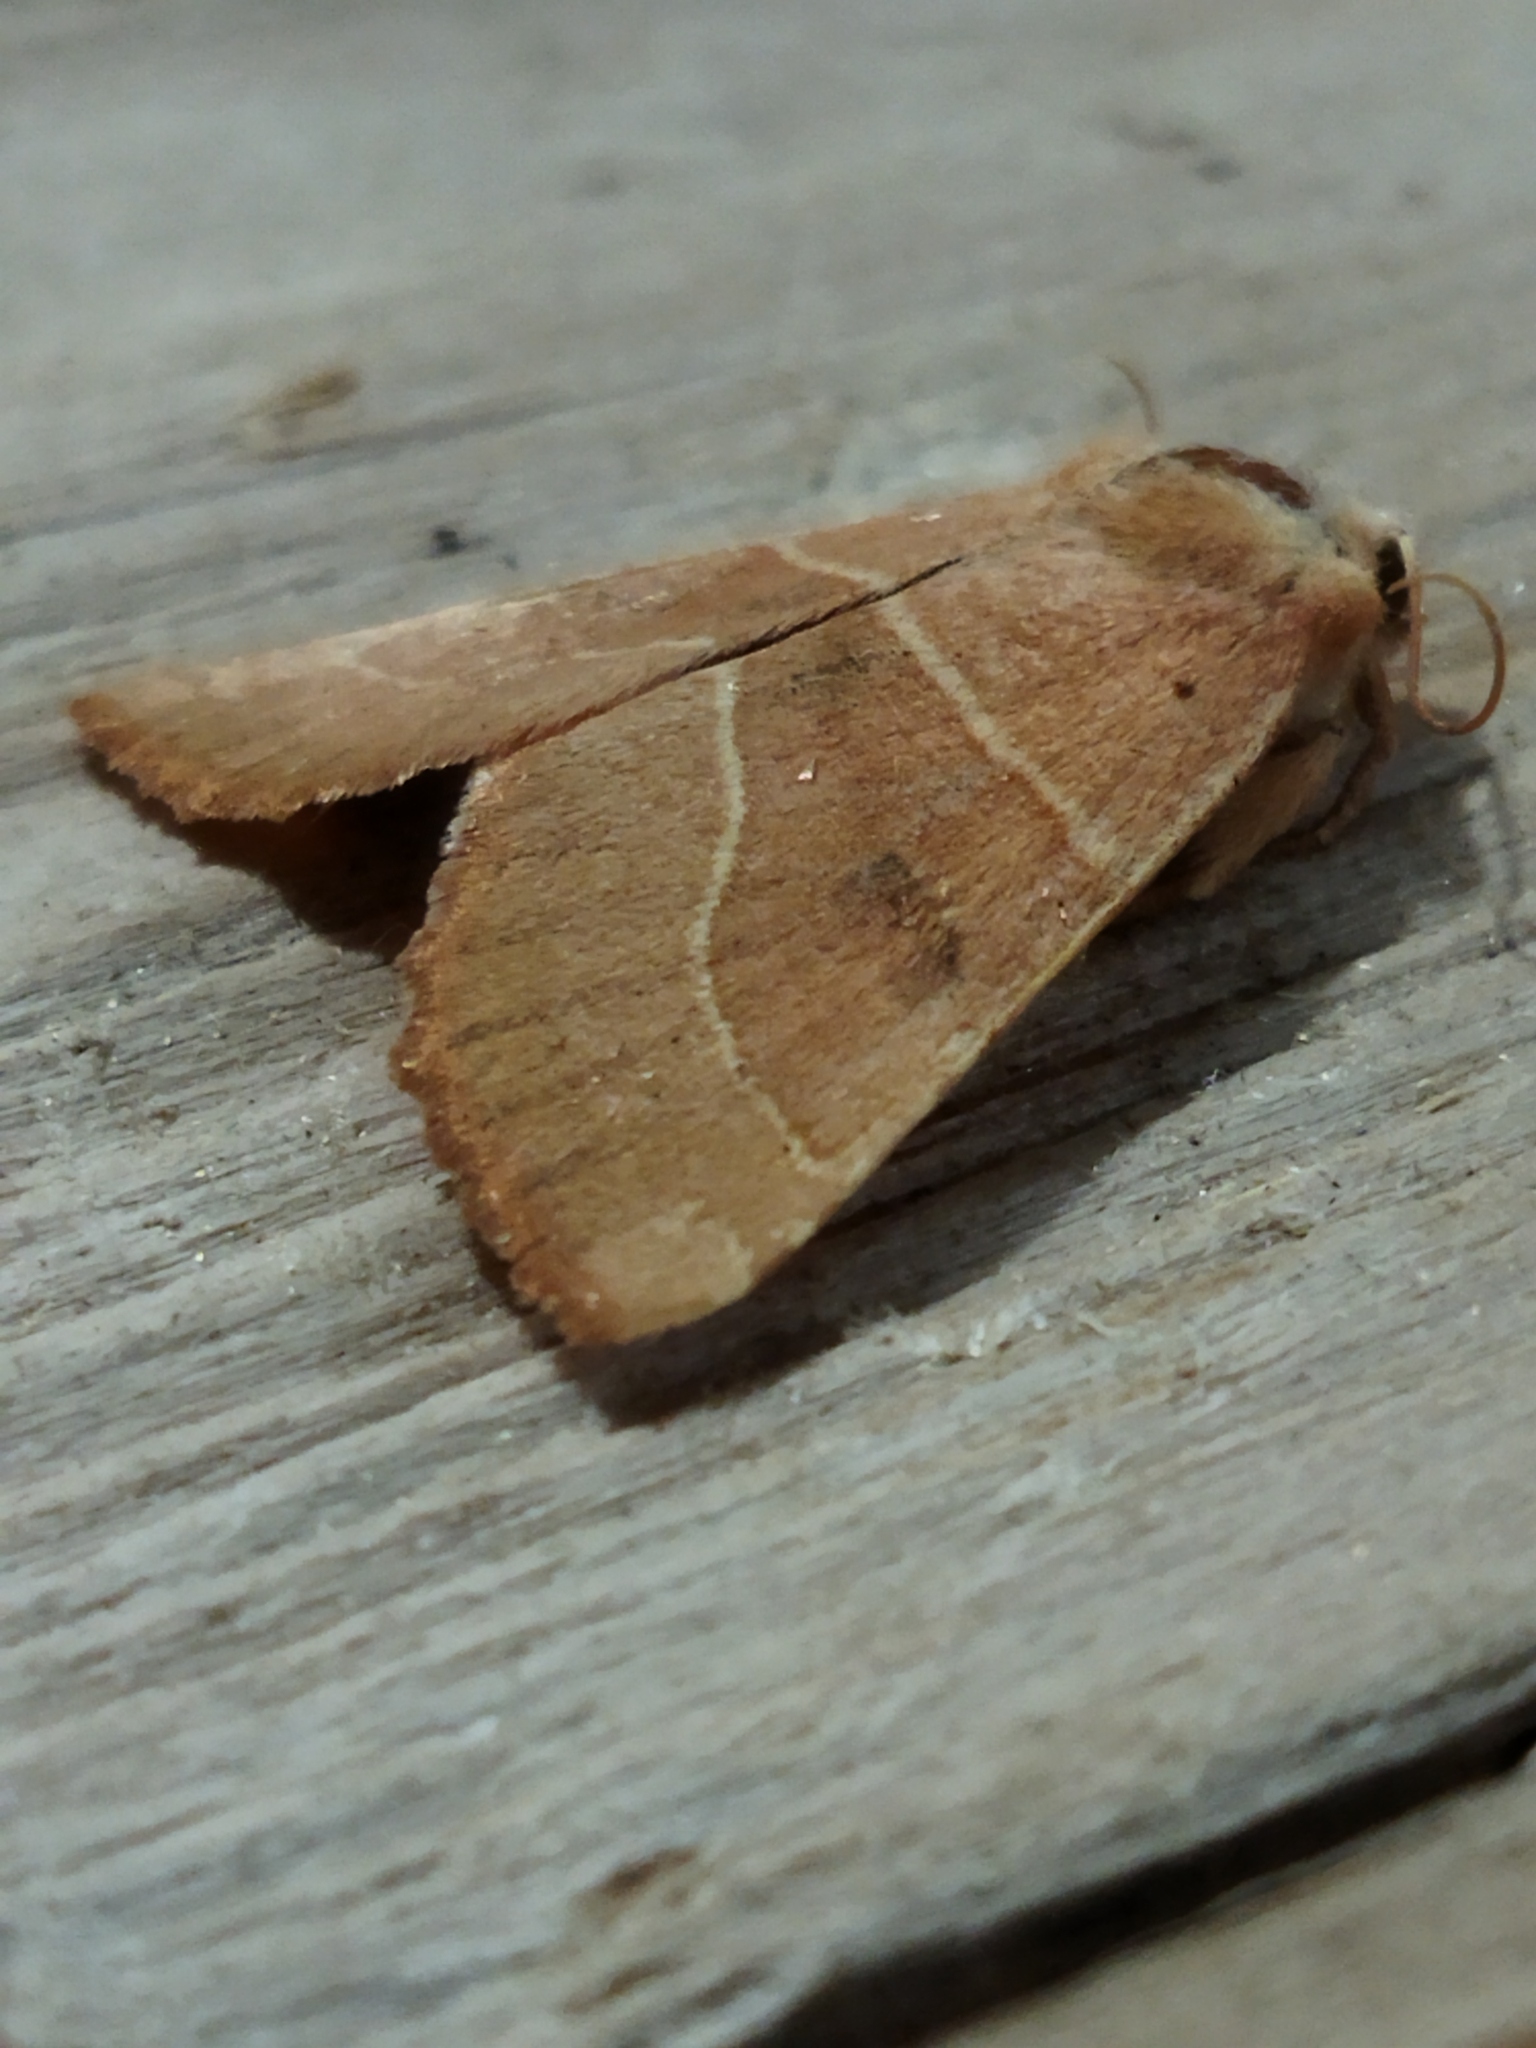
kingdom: Animalia
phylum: Arthropoda
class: Insecta
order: Lepidoptera
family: Noctuidae
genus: Atethmia
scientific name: Atethmia centrago
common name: Centre-barred sallow
